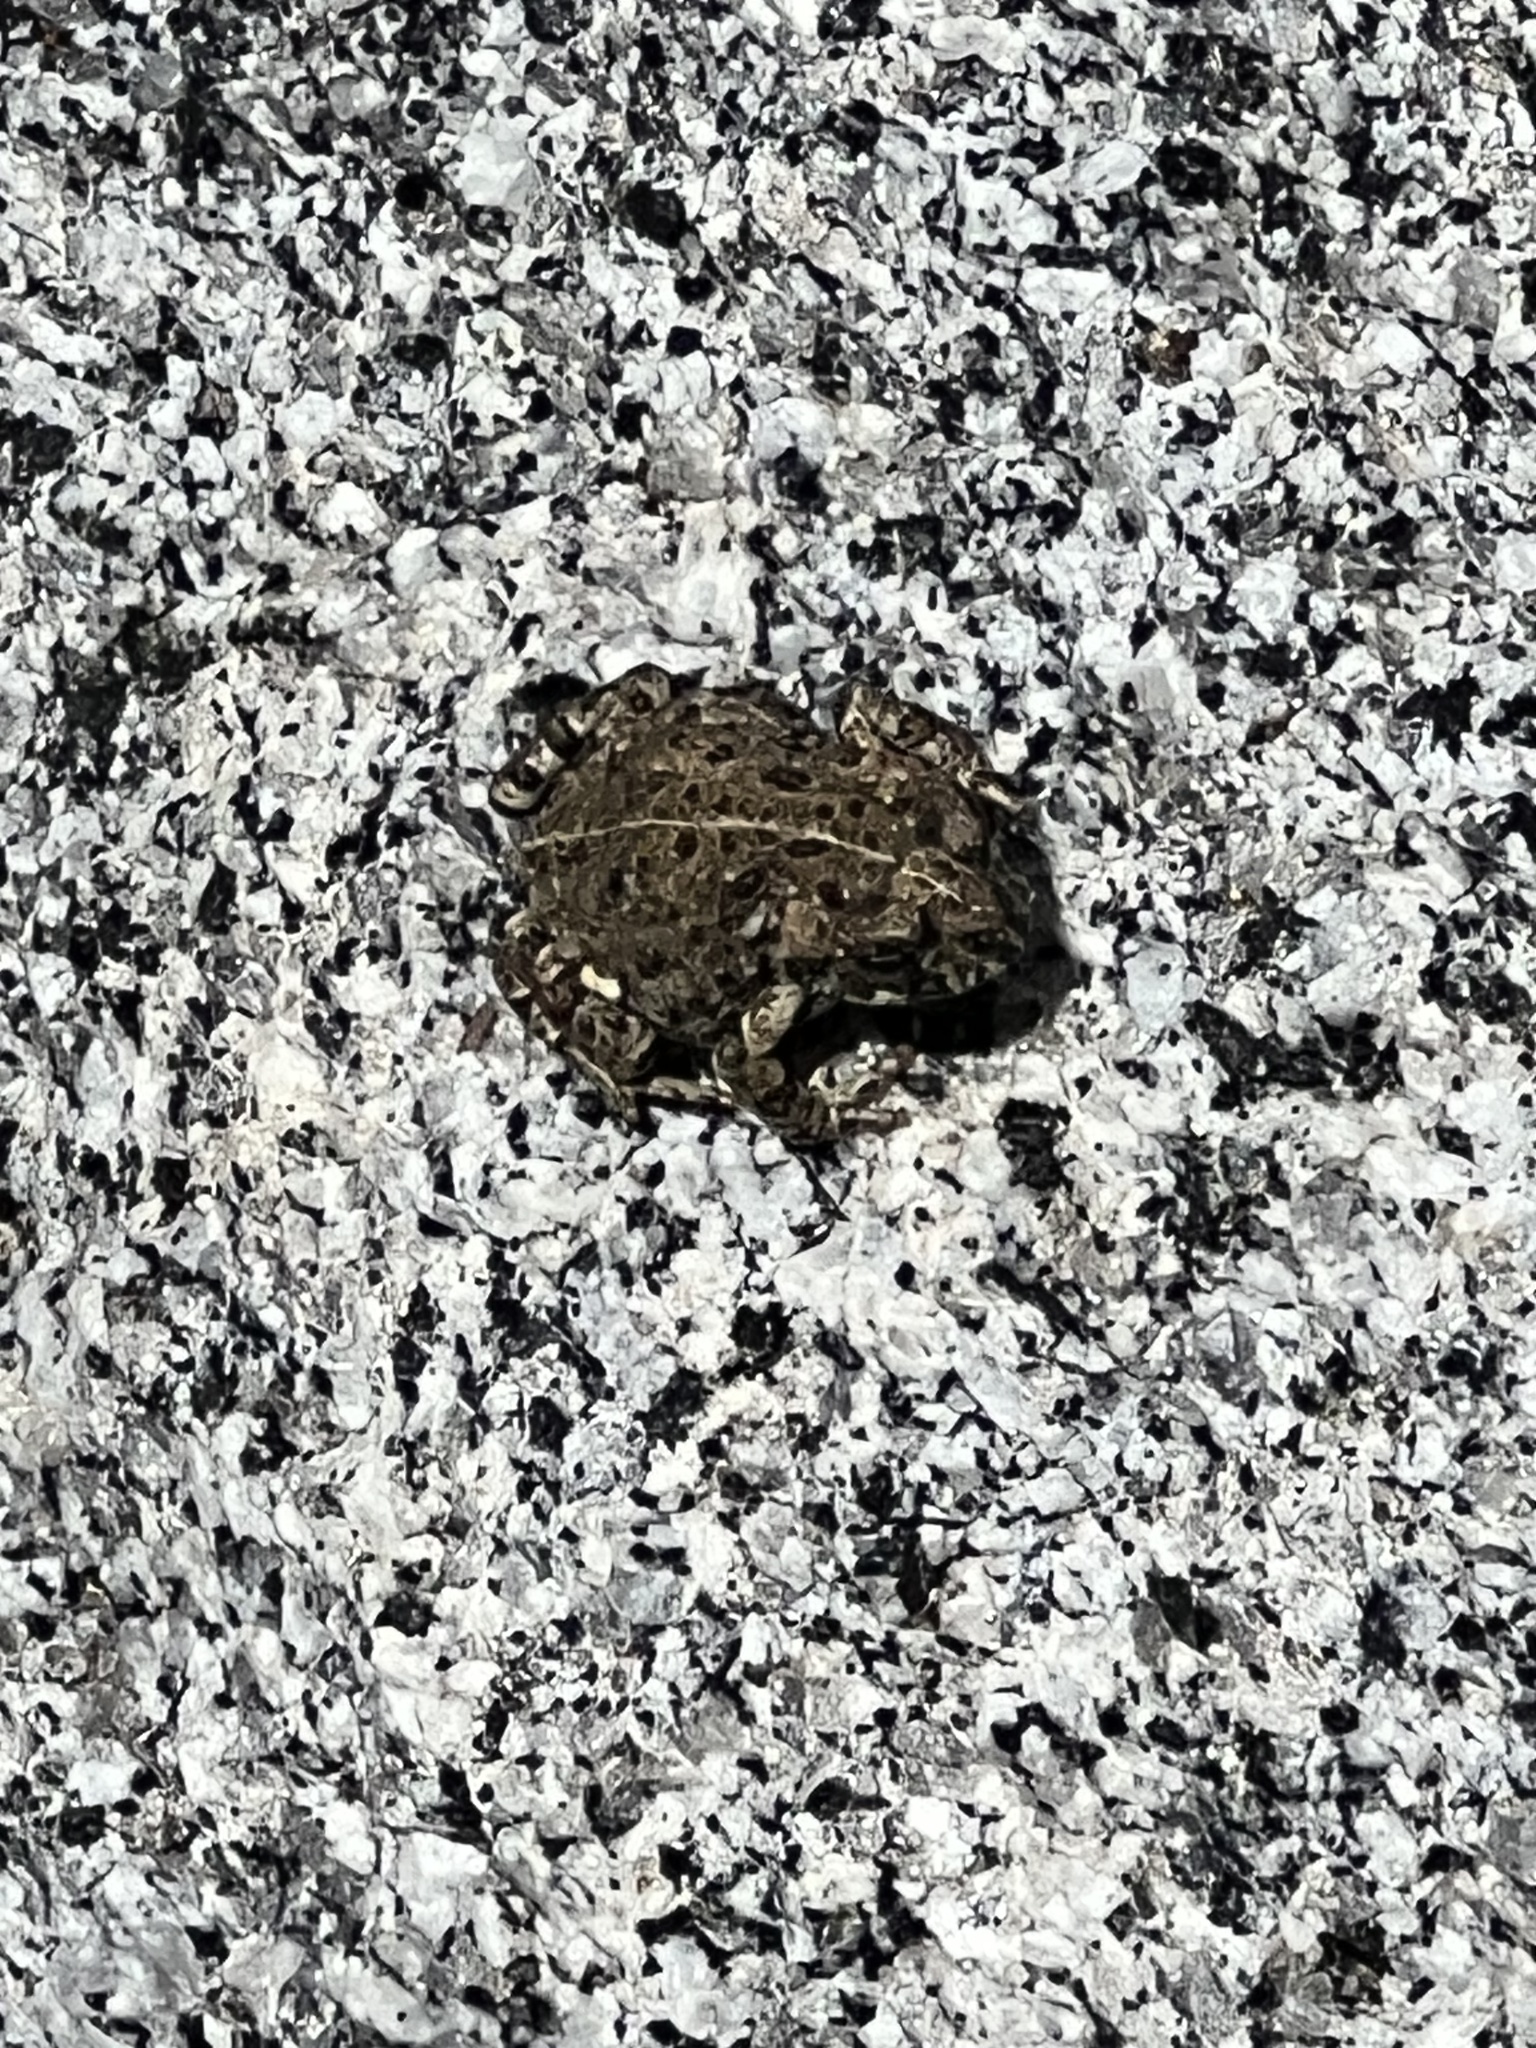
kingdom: Animalia
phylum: Chordata
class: Amphibia
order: Anura
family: Bufonidae
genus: Anaxyrus
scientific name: Anaxyrus boreas
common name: Western toad
